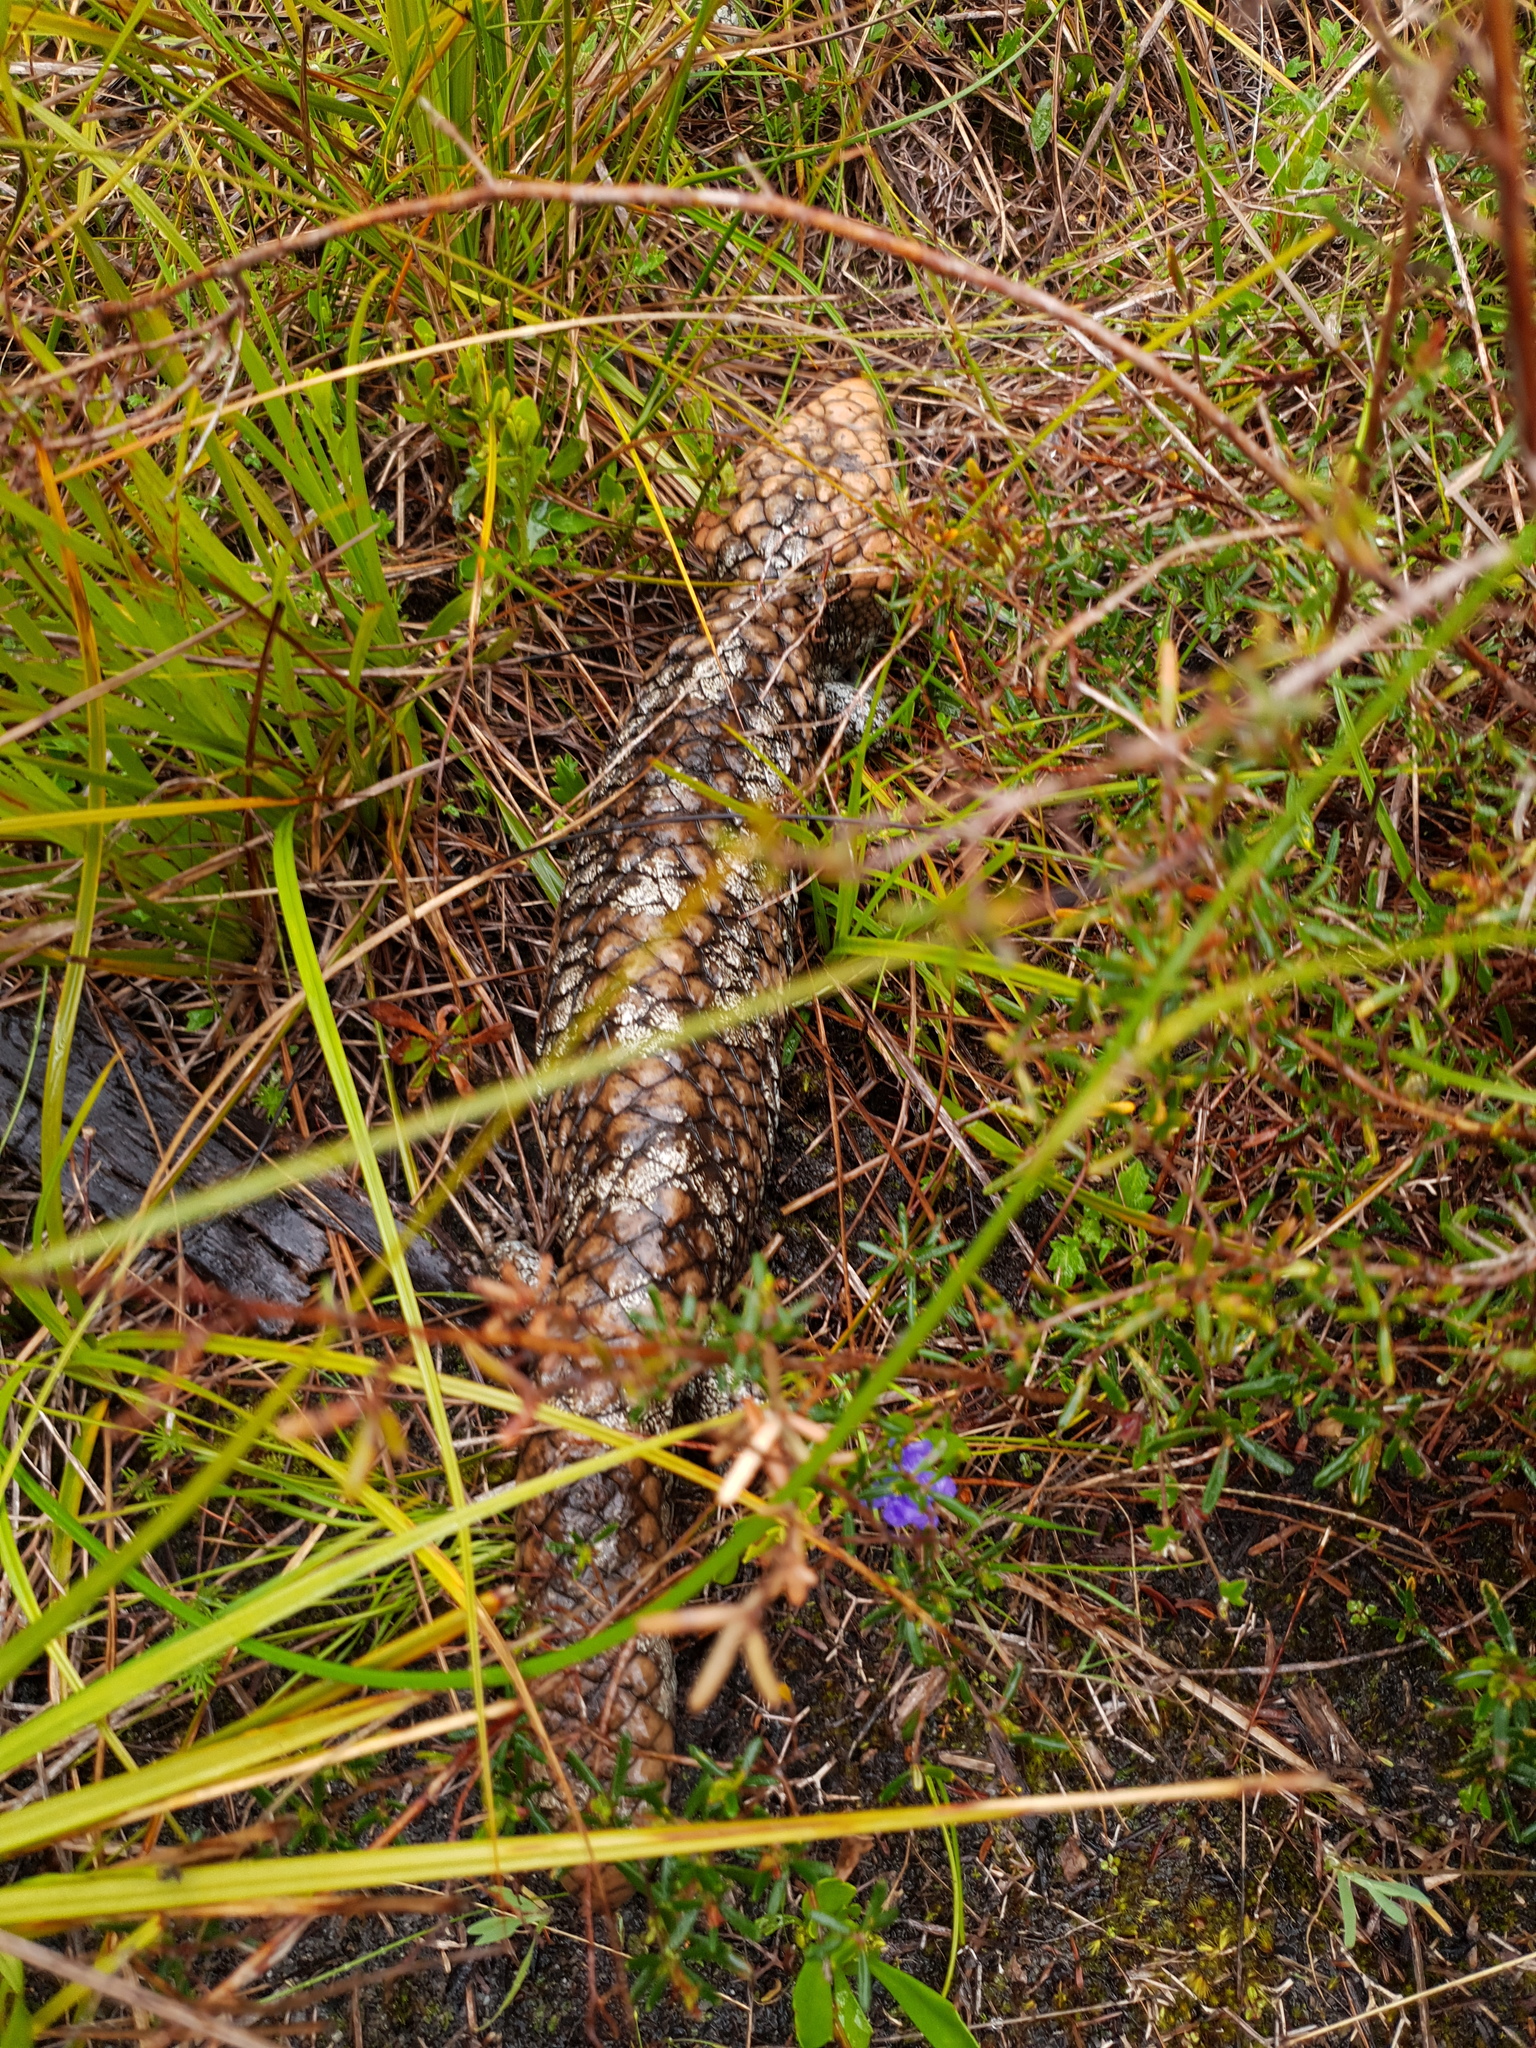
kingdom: Animalia
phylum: Chordata
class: Squamata
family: Scincidae
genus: Tiliqua
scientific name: Tiliqua rugosa
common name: Pinecone lizard
